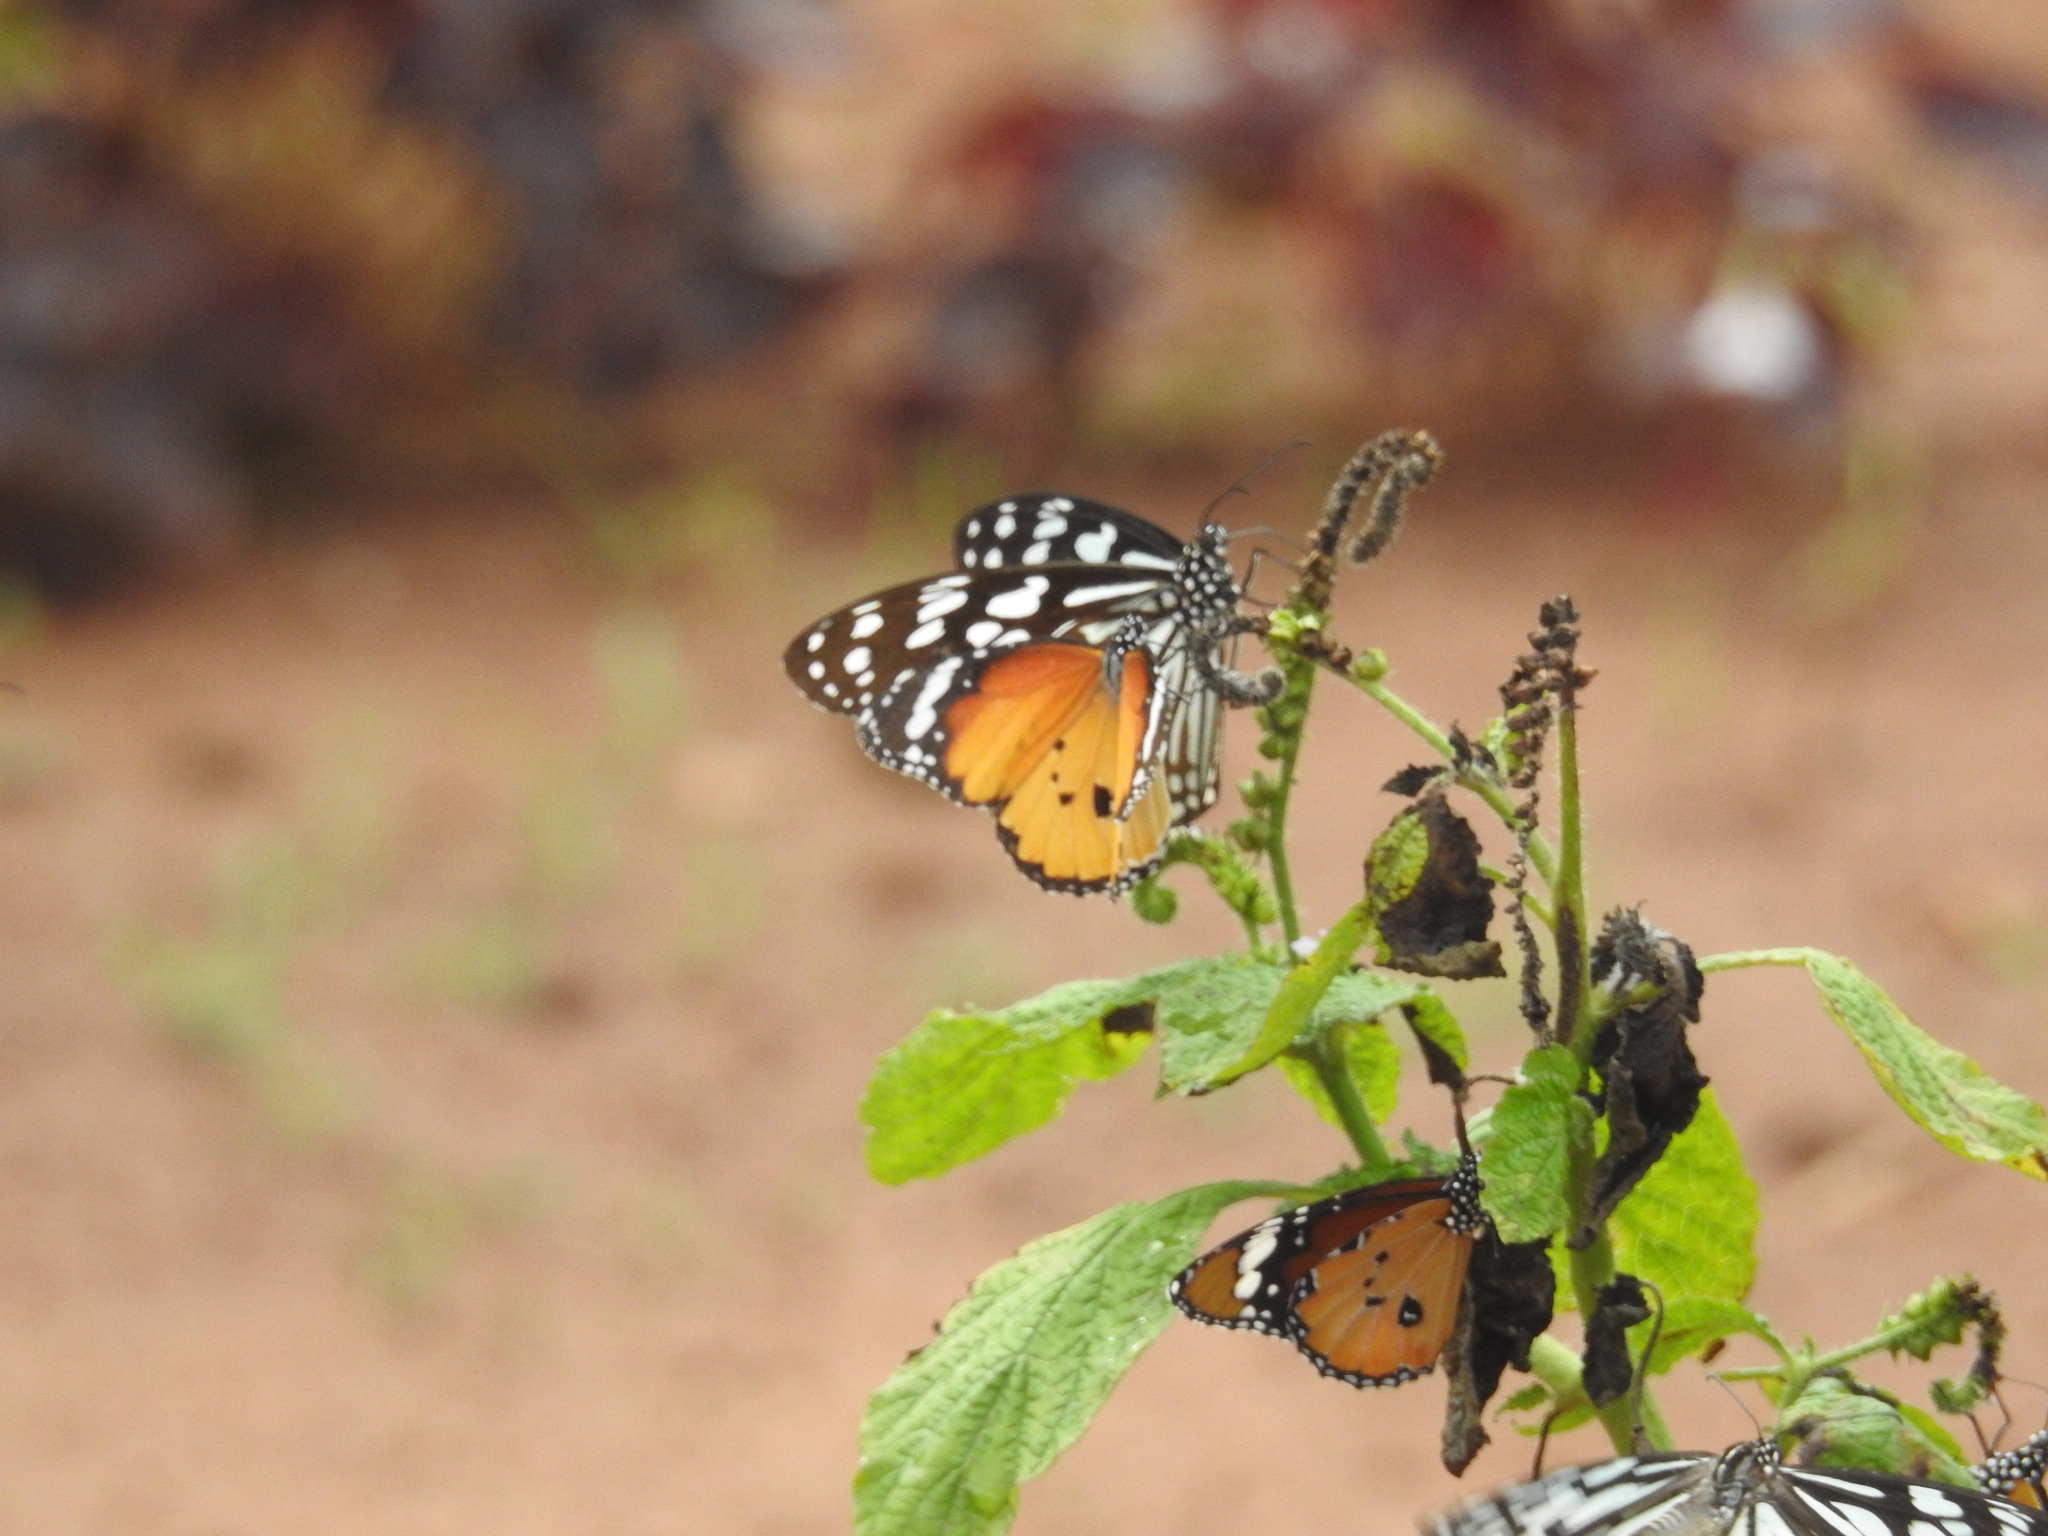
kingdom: Animalia
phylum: Arthropoda
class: Insecta
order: Lepidoptera
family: Nymphalidae
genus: Danaus
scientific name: Danaus chrysippus
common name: Plain tiger
